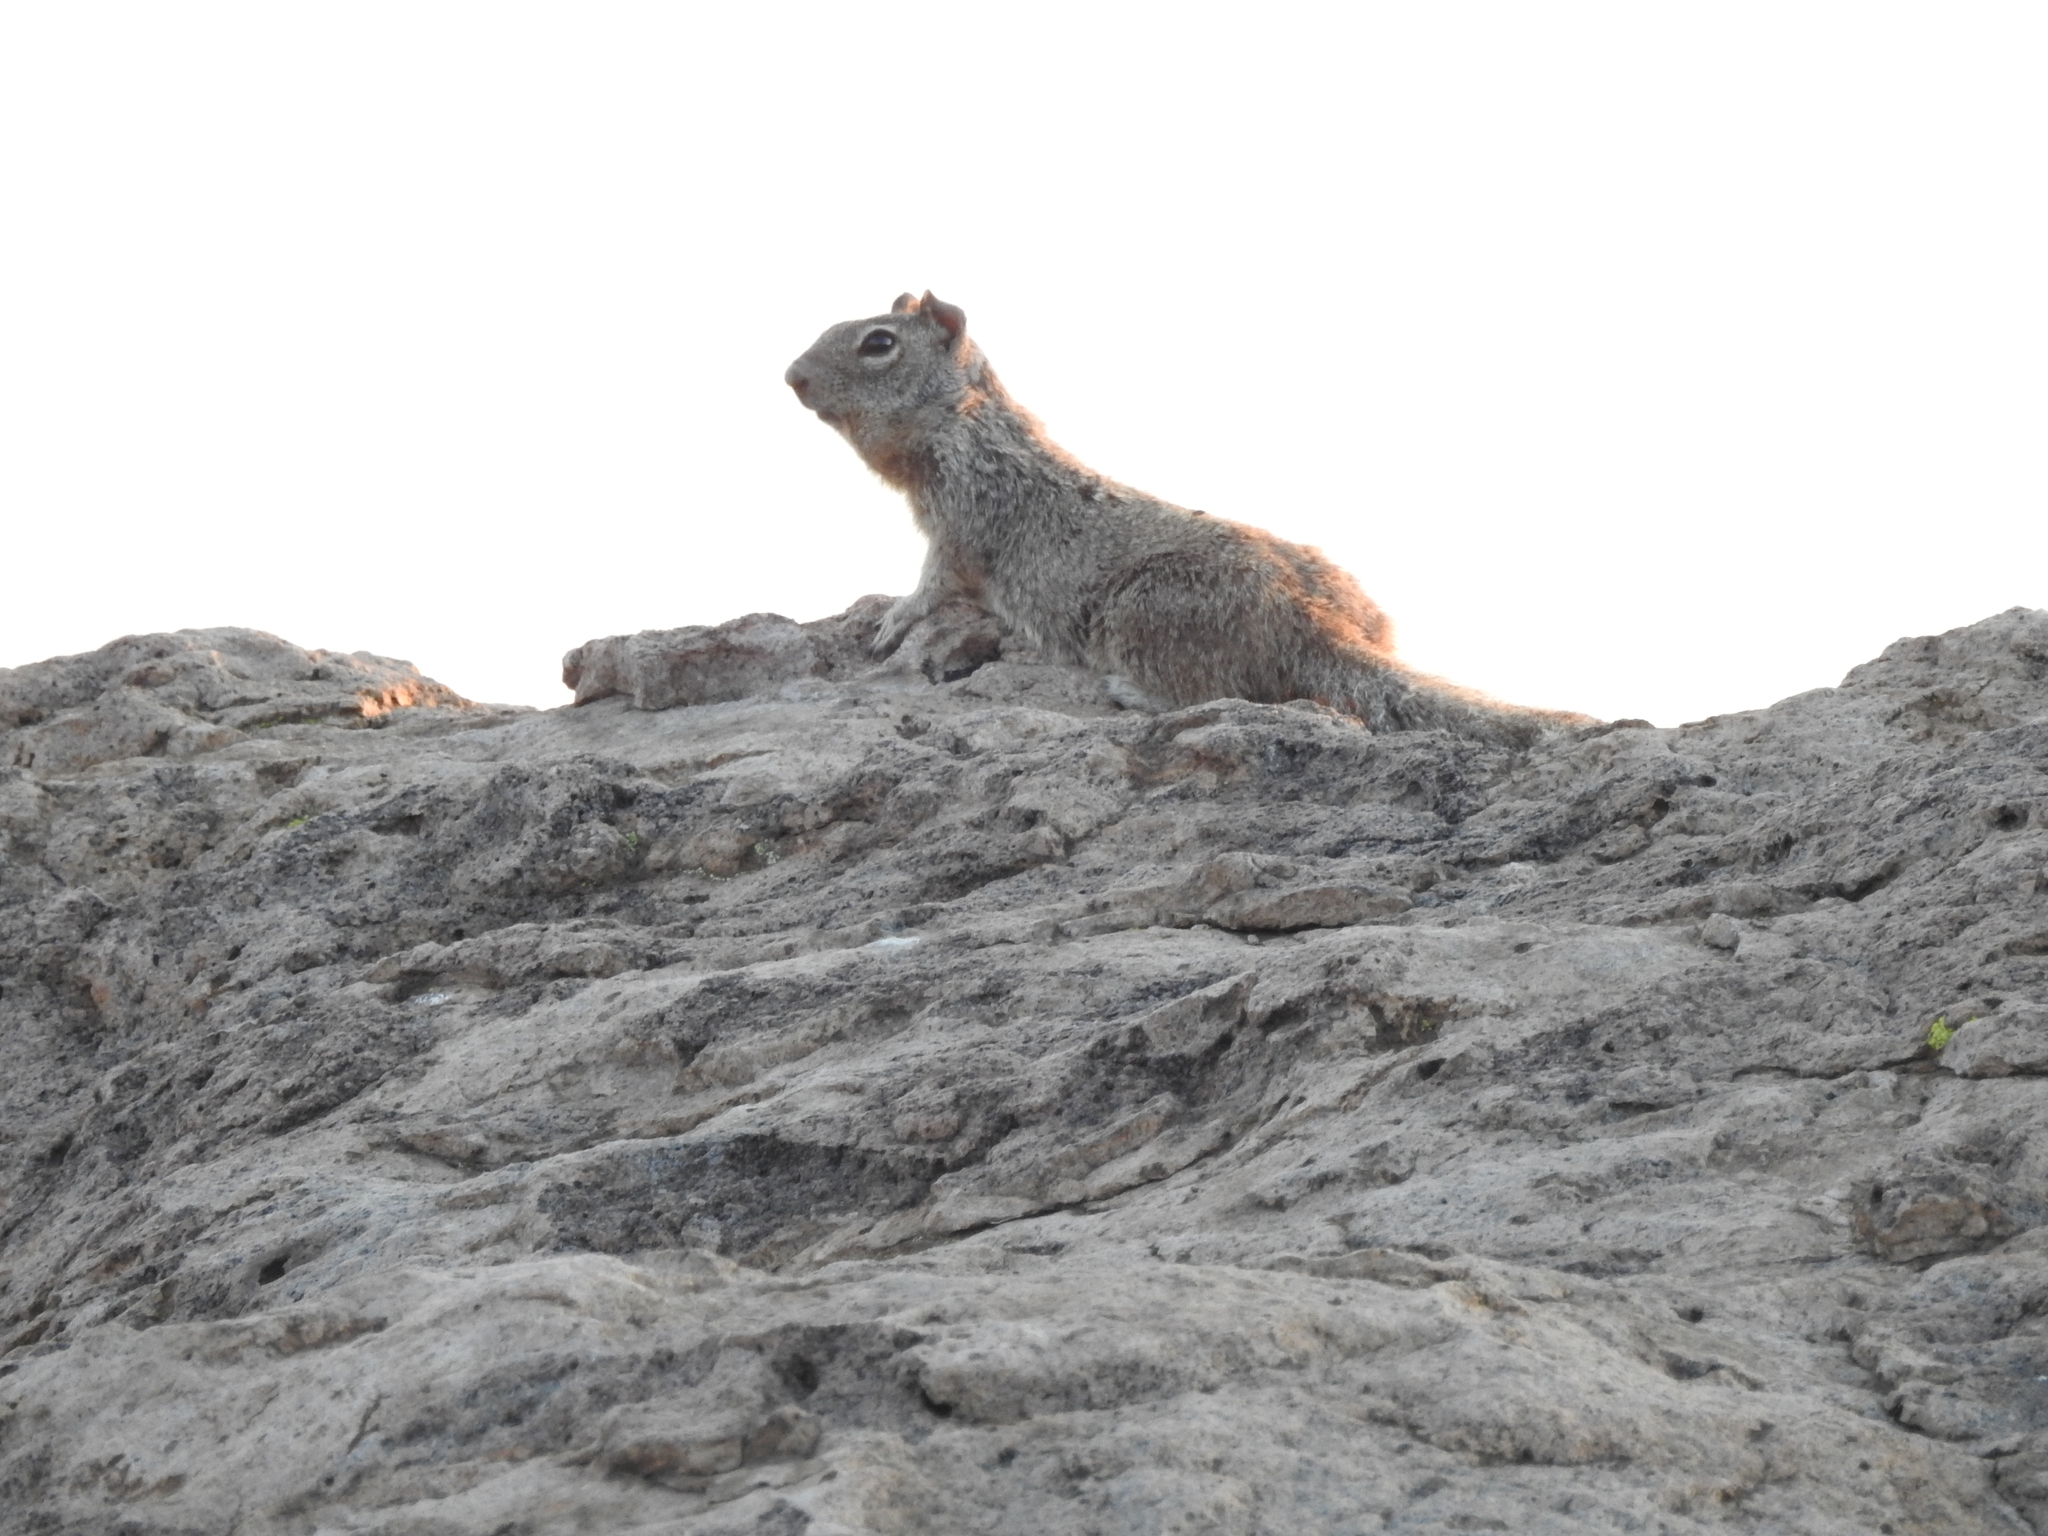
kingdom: Animalia
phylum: Chordata
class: Mammalia
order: Rodentia
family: Sciuridae
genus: Otospermophilus
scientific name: Otospermophilus variegatus
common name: Rock squirrel
